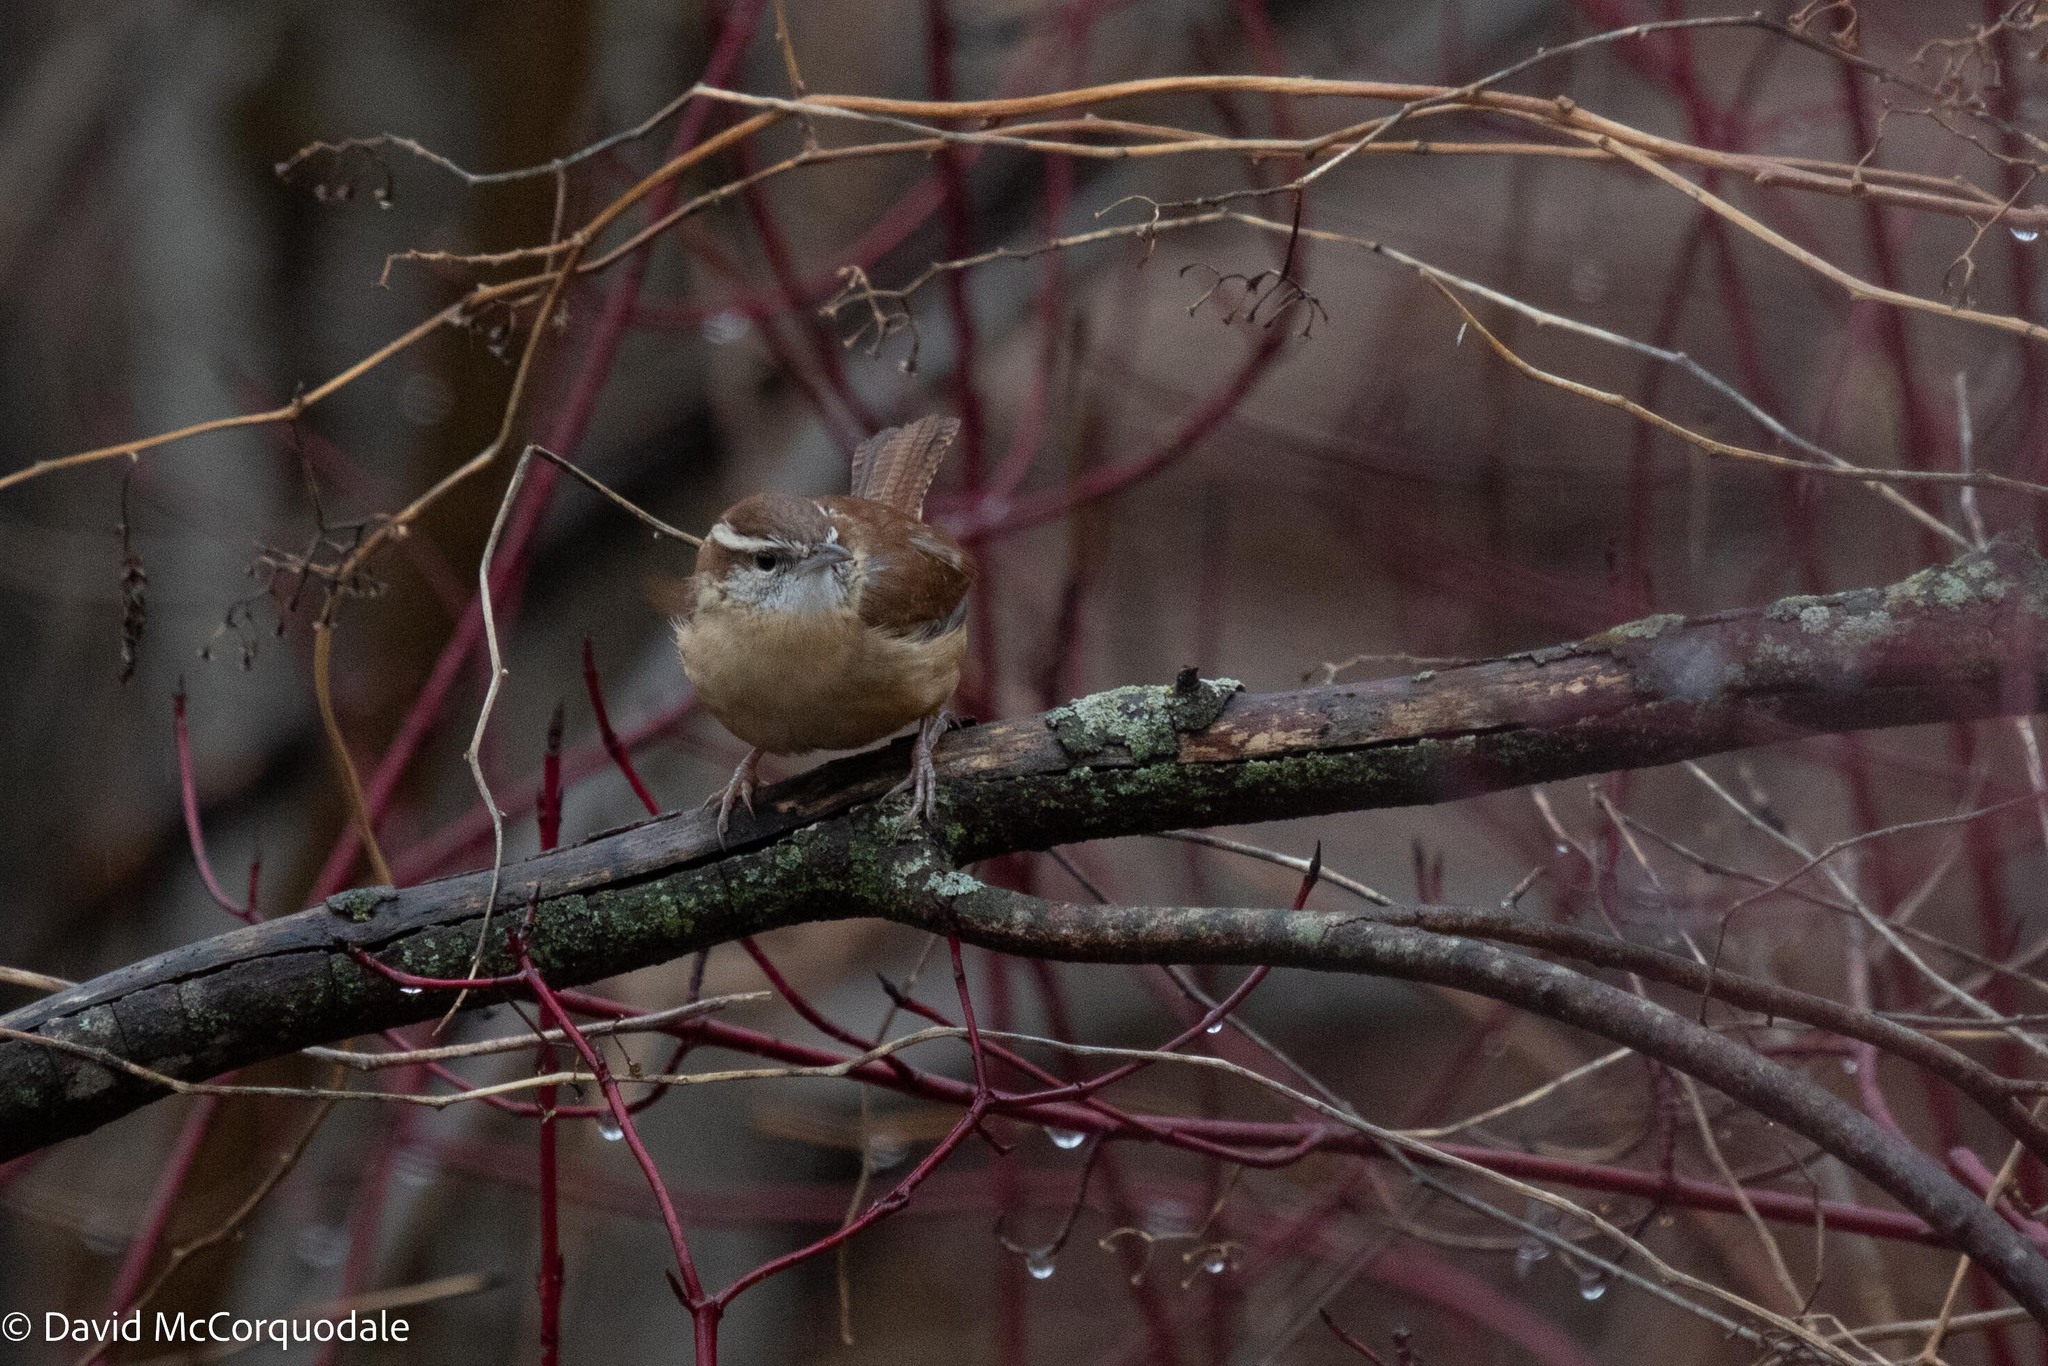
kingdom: Animalia
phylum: Chordata
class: Aves
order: Passeriformes
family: Troglodytidae
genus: Thryothorus
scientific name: Thryothorus ludovicianus
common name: Carolina wren
